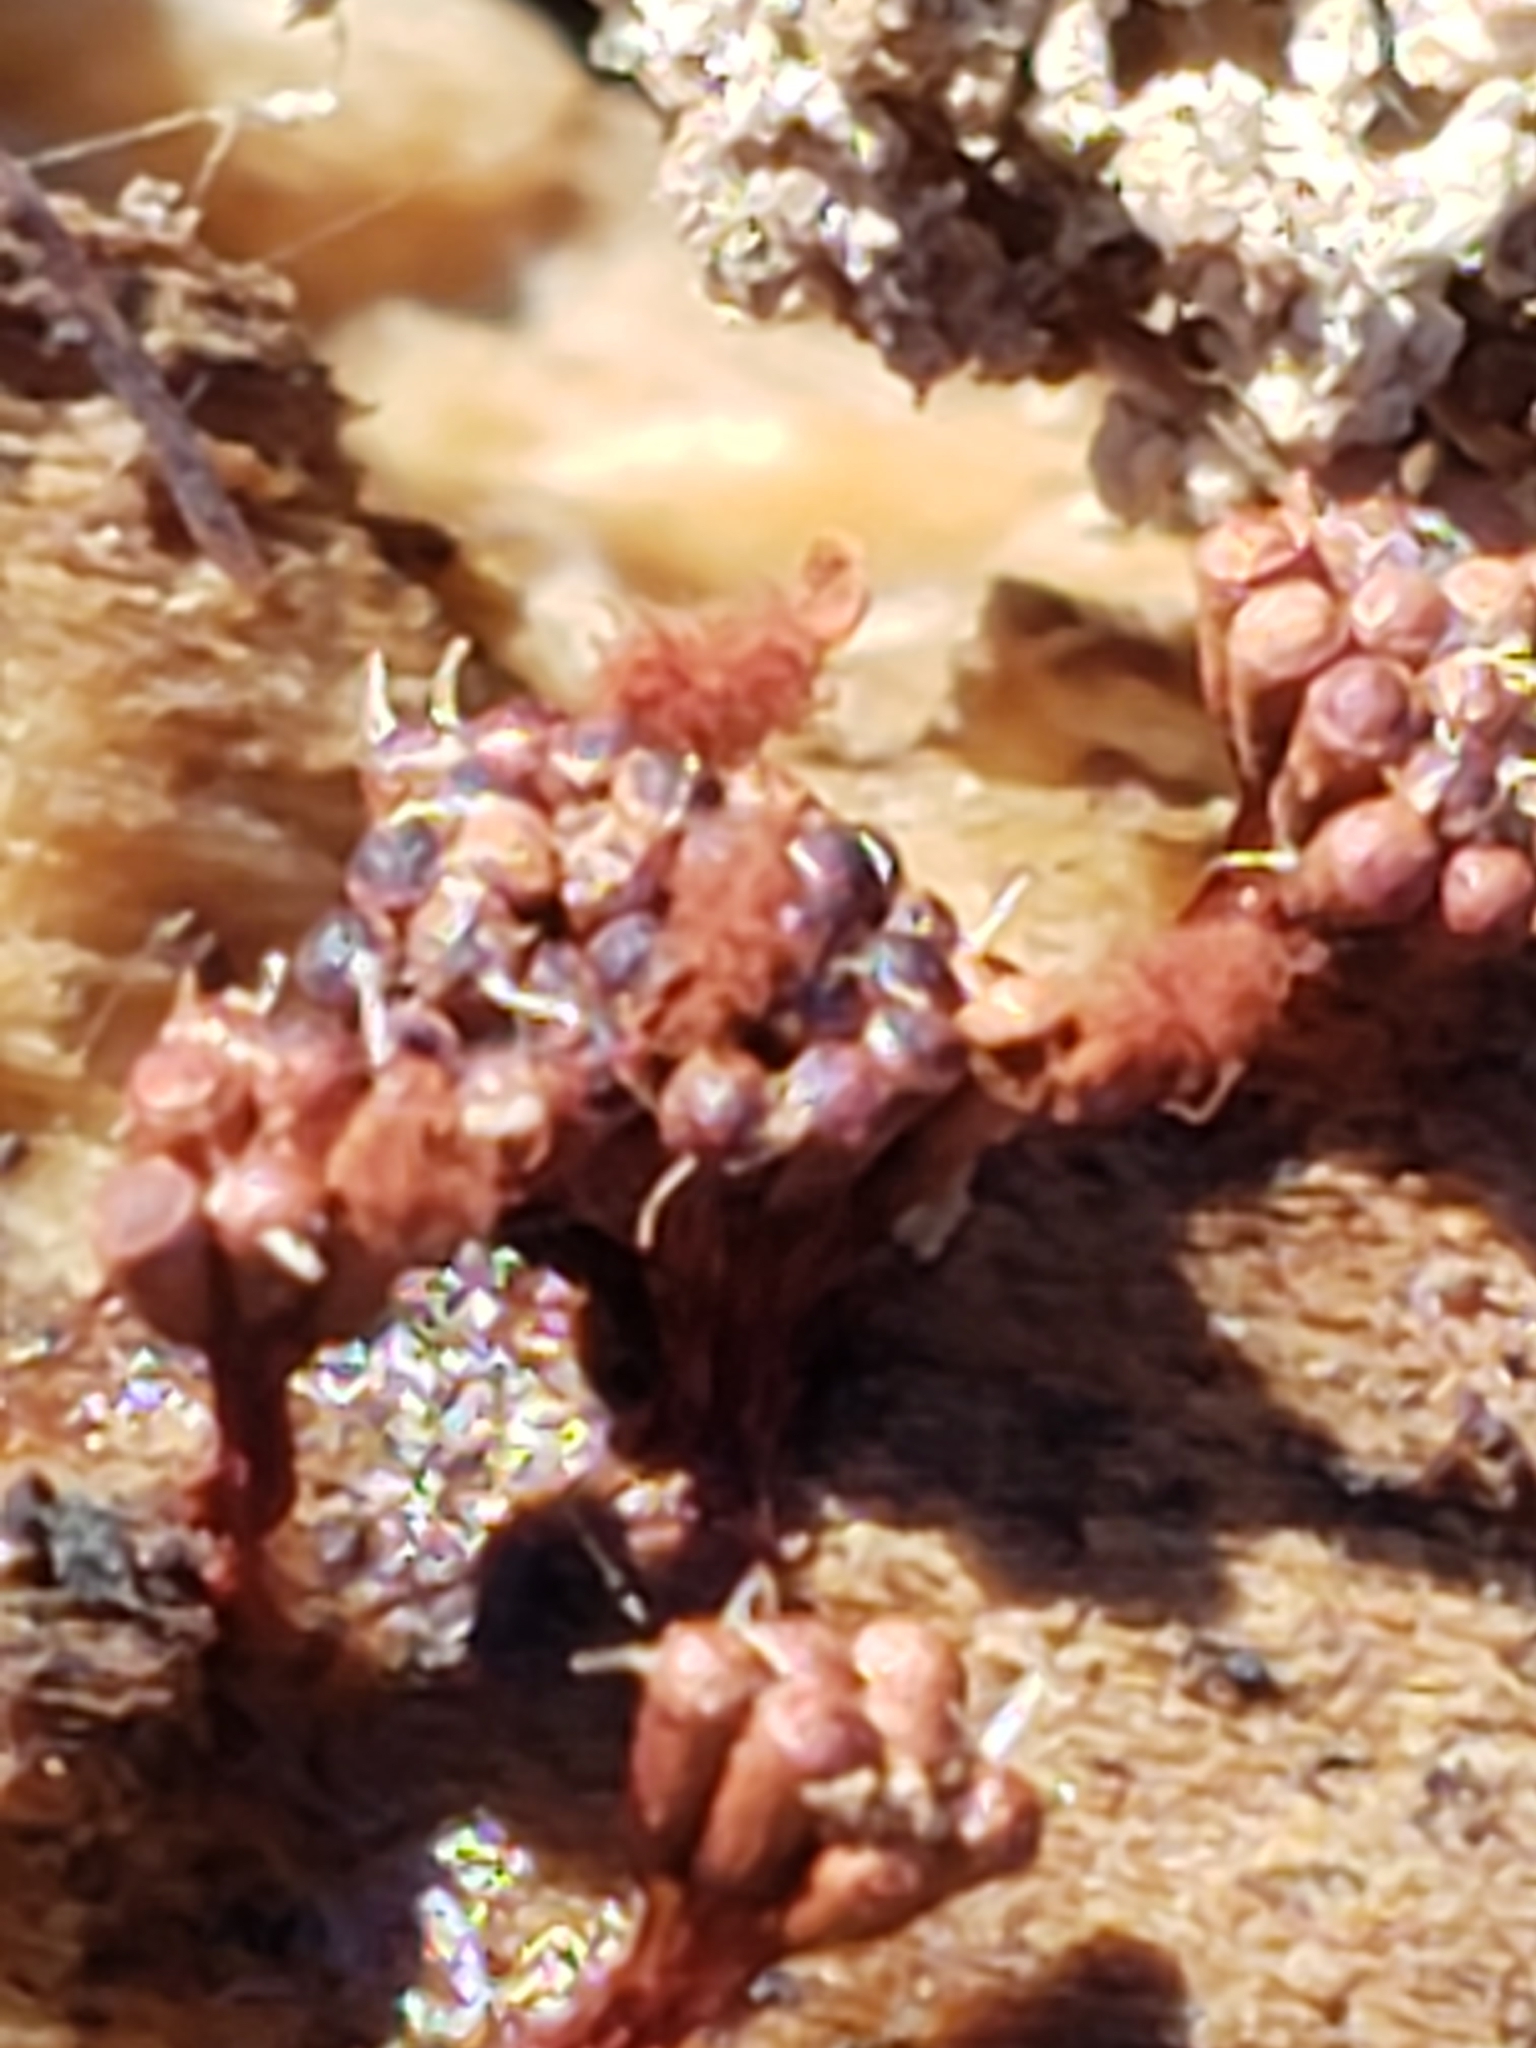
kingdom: Fungi
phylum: Ascomycota
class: Sordariomycetes
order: Hypocreales
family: Ophiocordycipitaceae
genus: Polycephalomyces
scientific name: Polycephalomyces tomentosus
